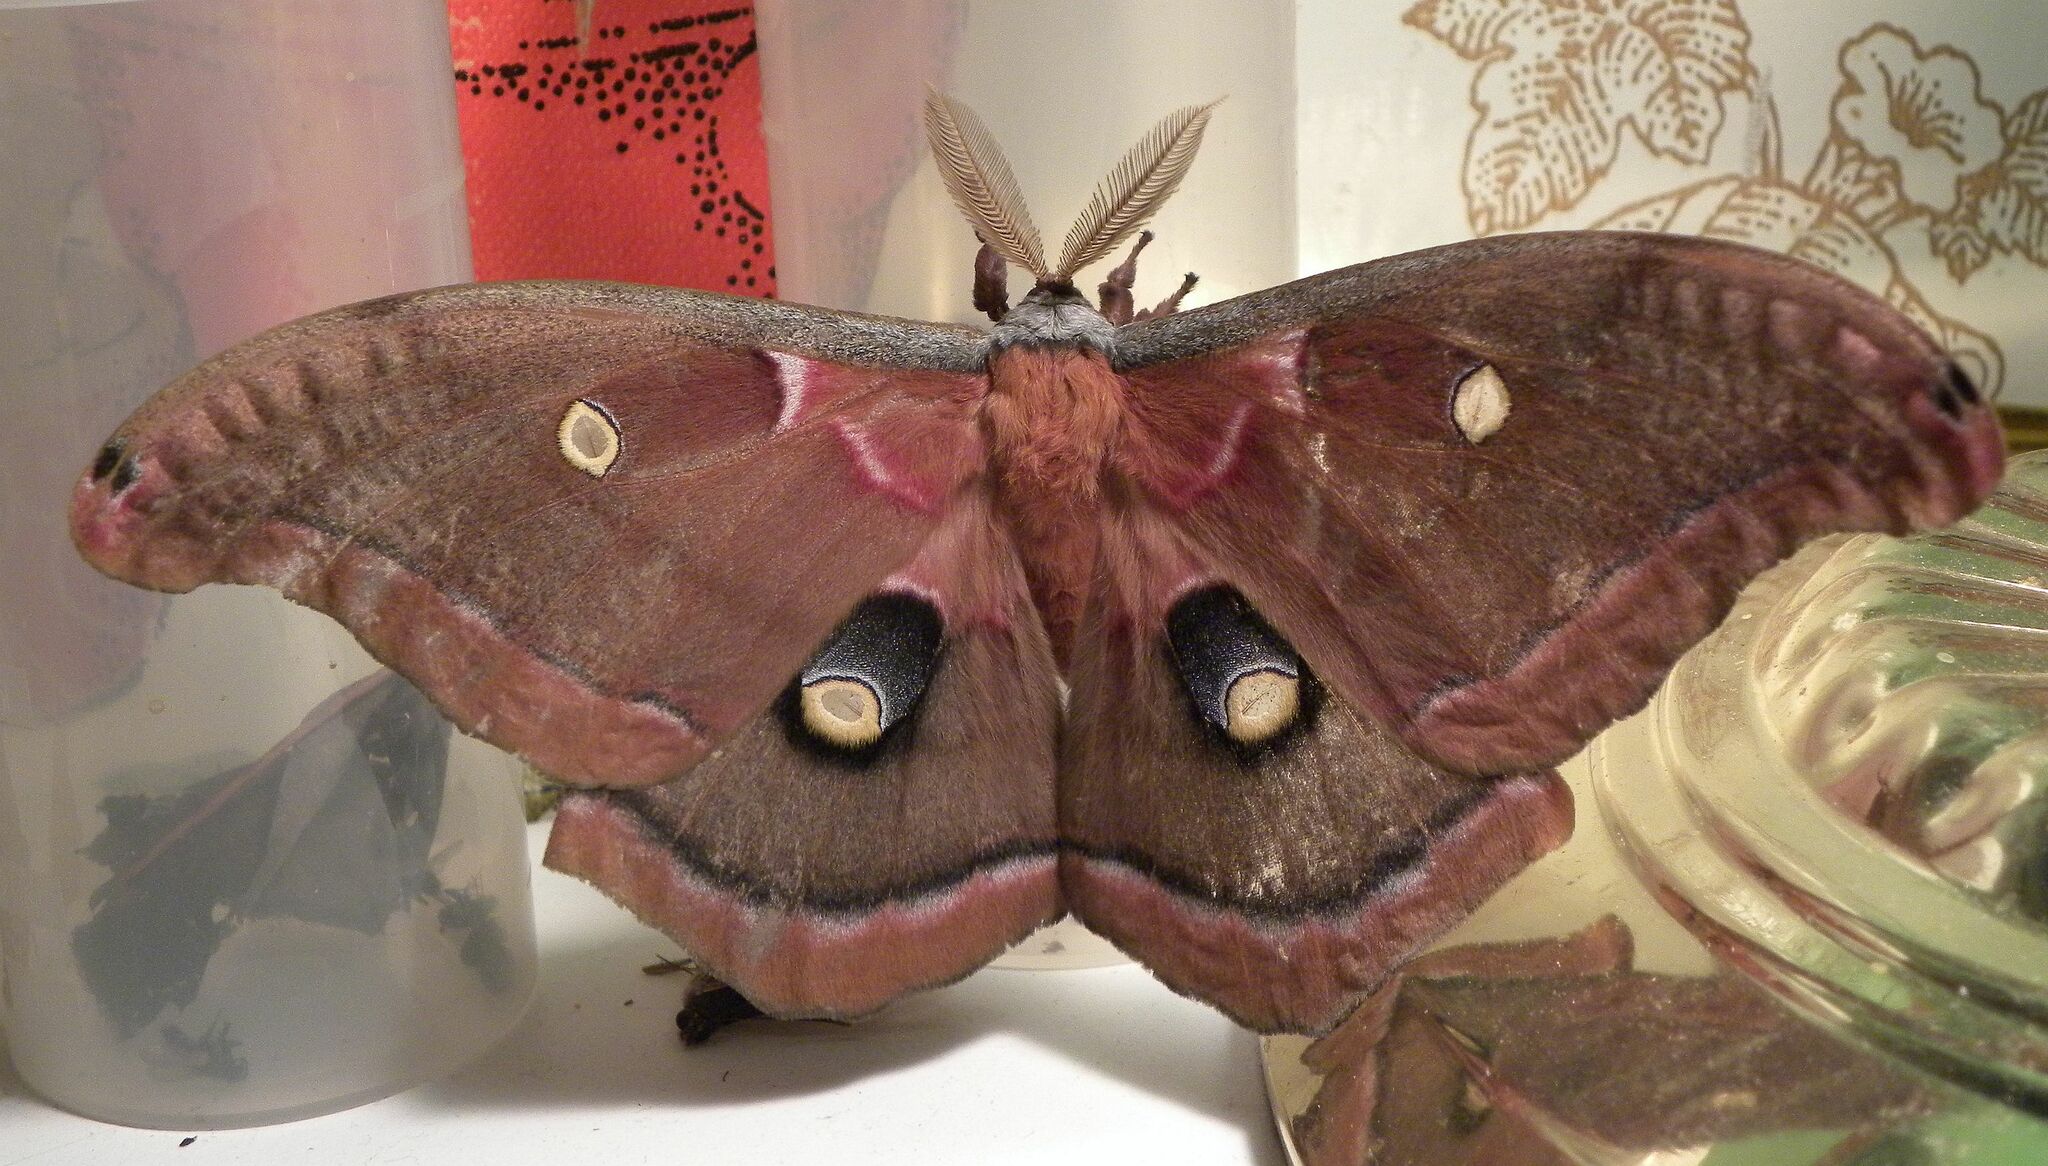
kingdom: Animalia
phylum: Arthropoda
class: Insecta
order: Lepidoptera
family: Saturniidae
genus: Antheraea
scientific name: Antheraea polyphemus
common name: Polyphemus moth
